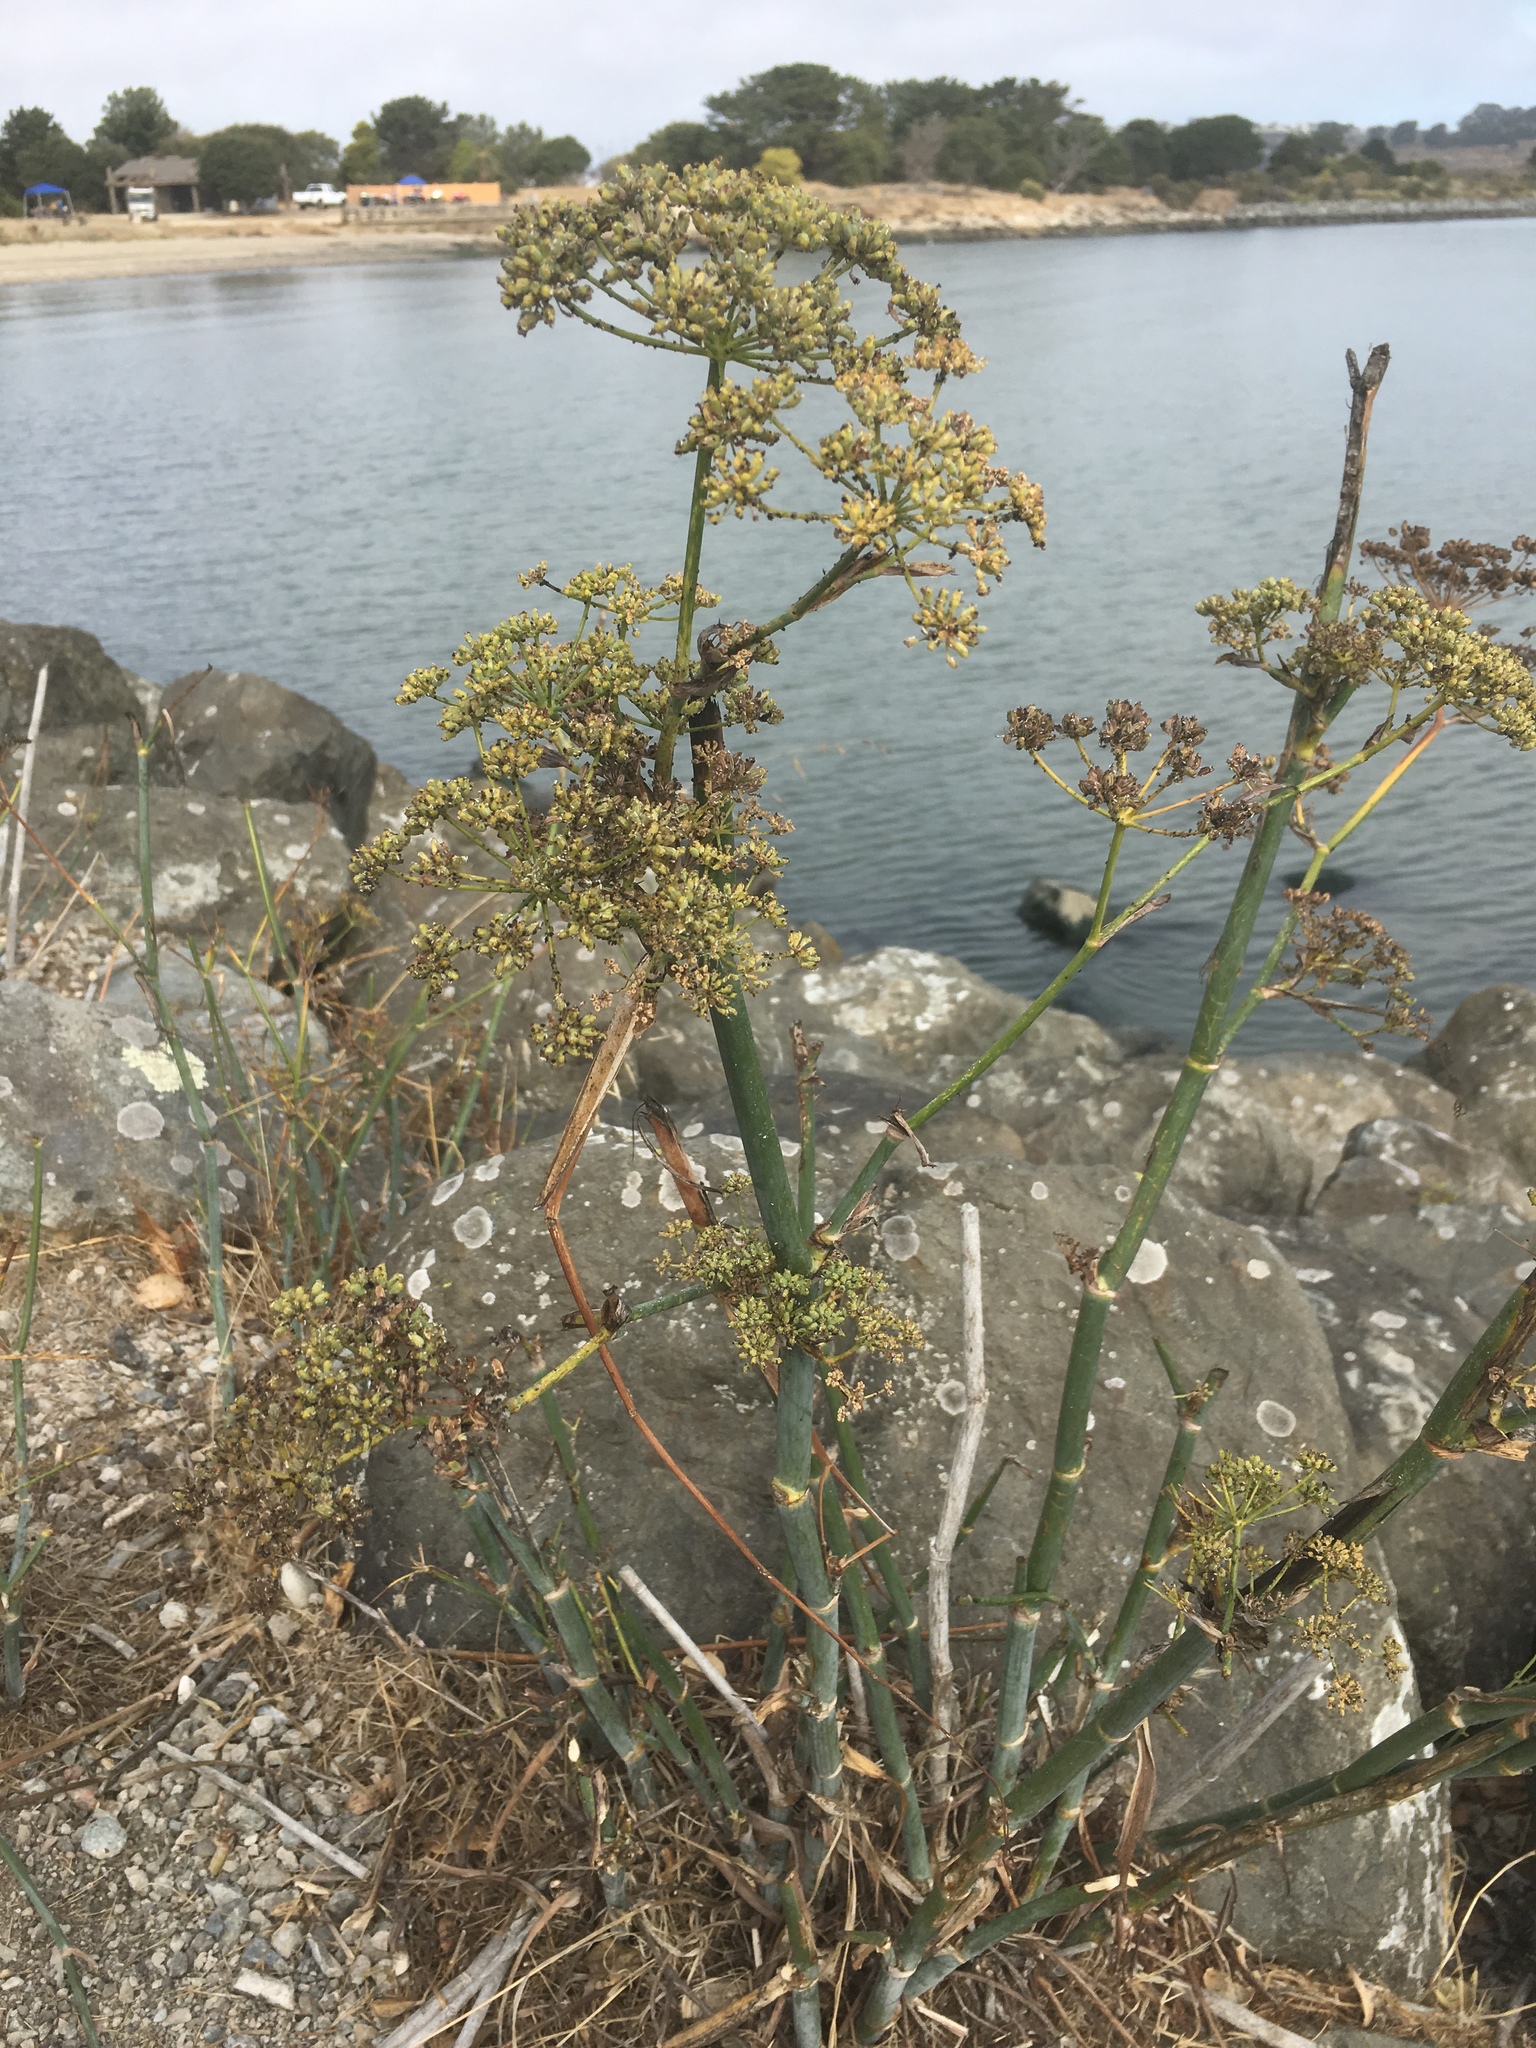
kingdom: Plantae
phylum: Tracheophyta
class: Magnoliopsida
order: Apiales
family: Apiaceae
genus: Foeniculum
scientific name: Foeniculum vulgare
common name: Fennel
